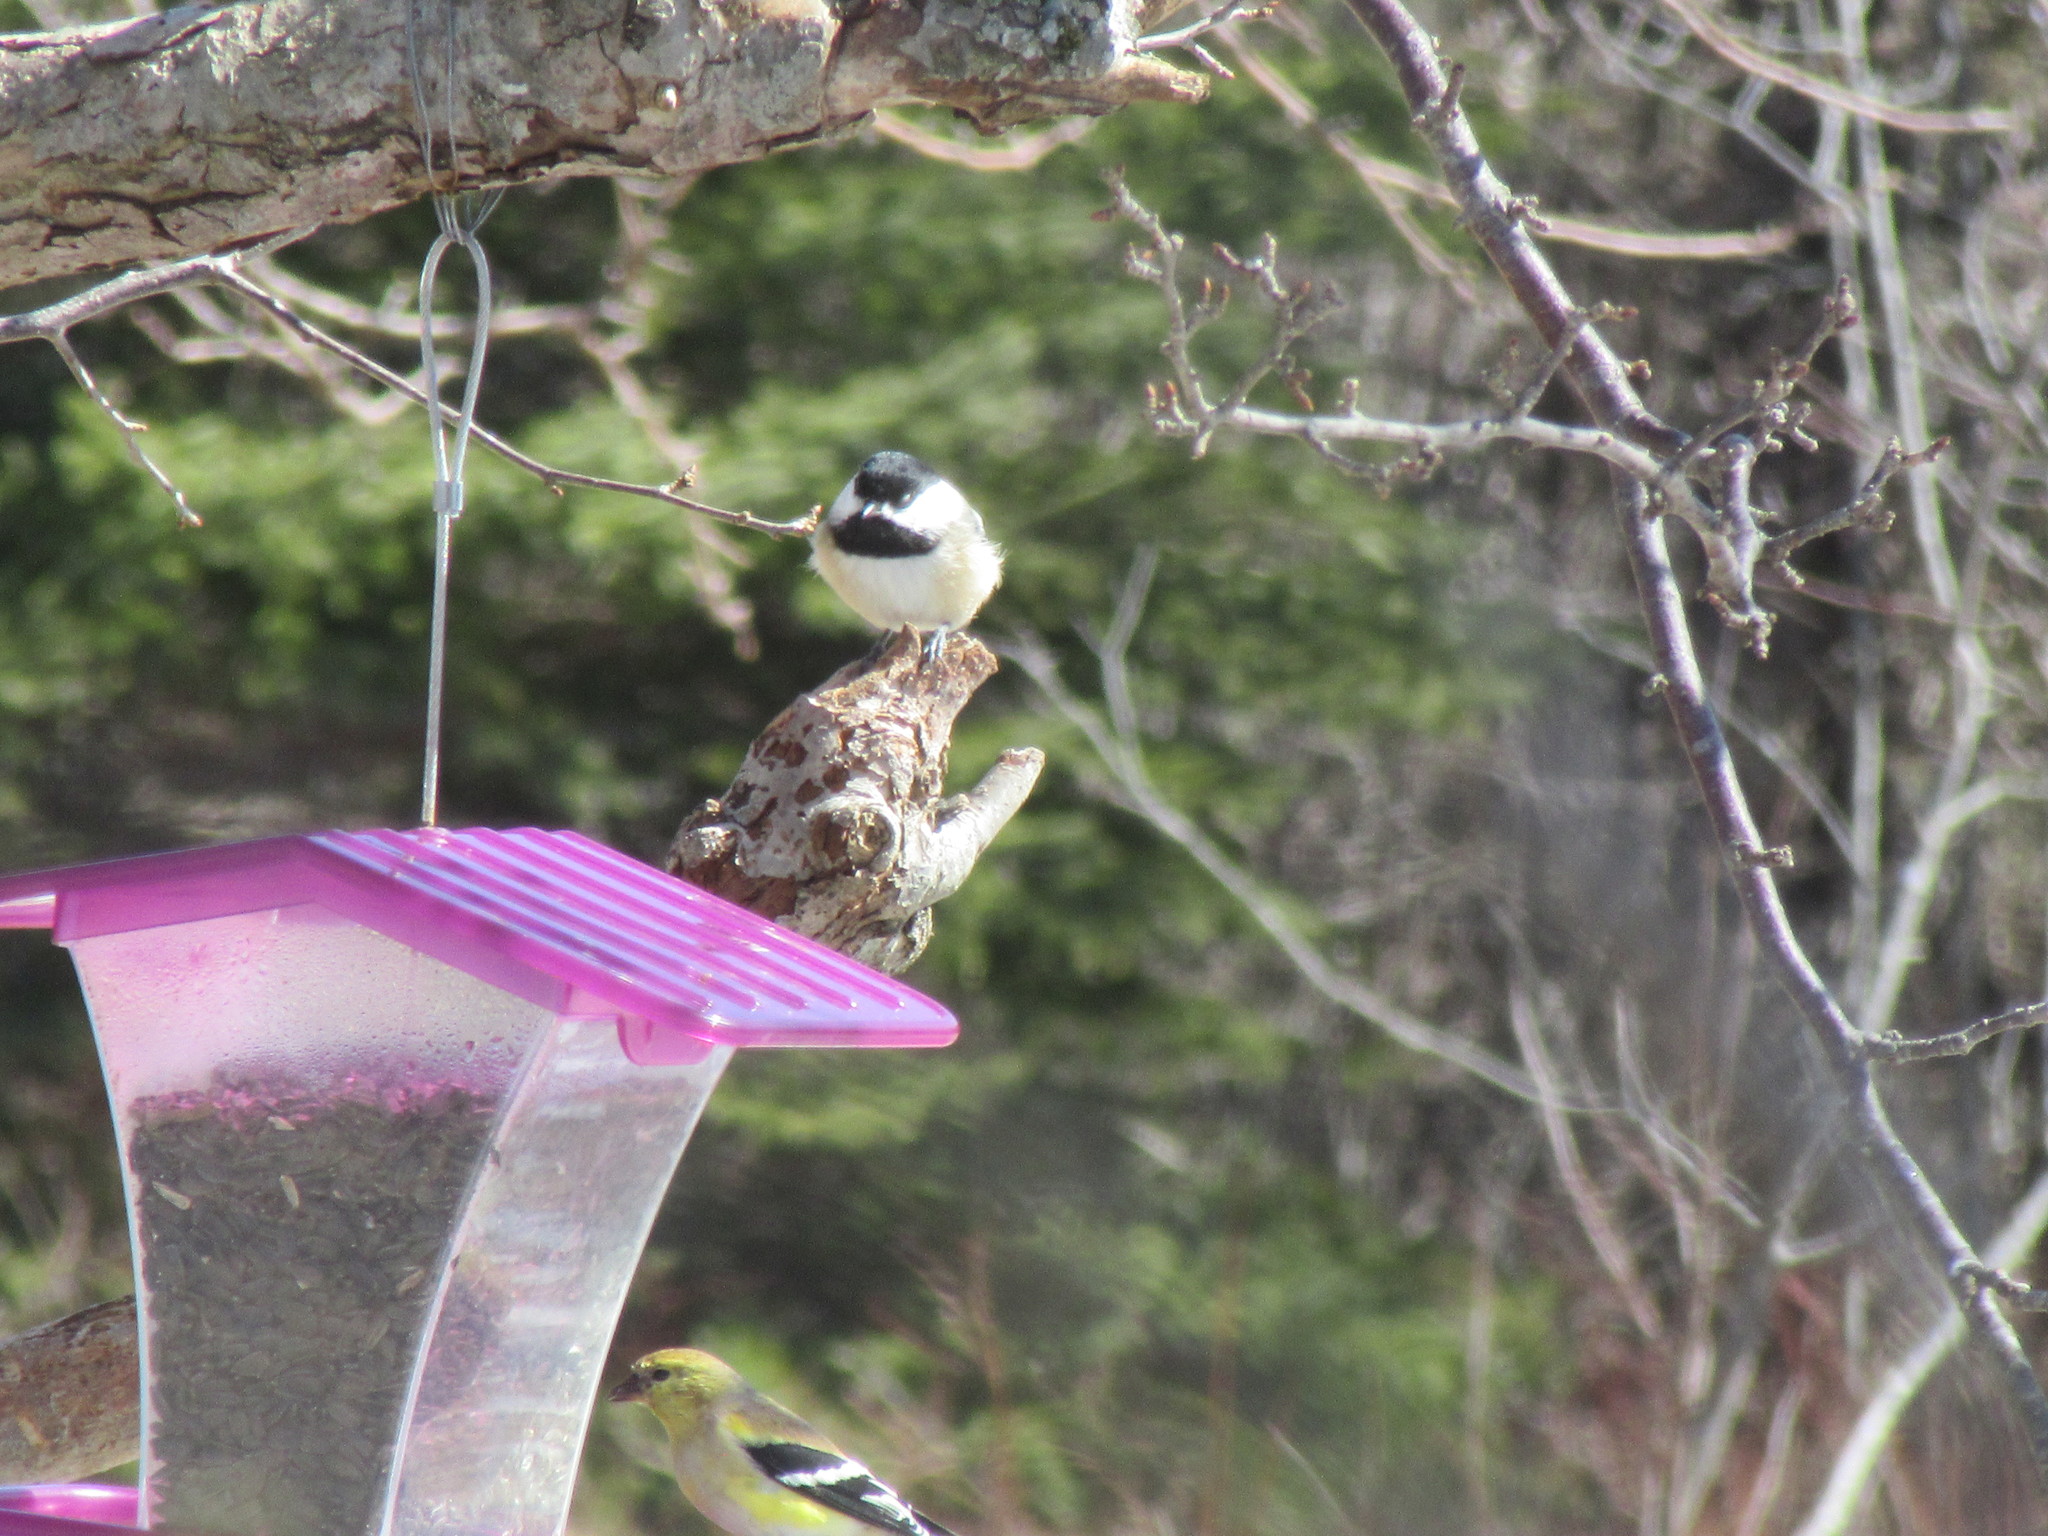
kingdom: Animalia
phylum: Chordata
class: Aves
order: Passeriformes
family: Paridae
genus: Poecile
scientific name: Poecile atricapillus
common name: Black-capped chickadee
